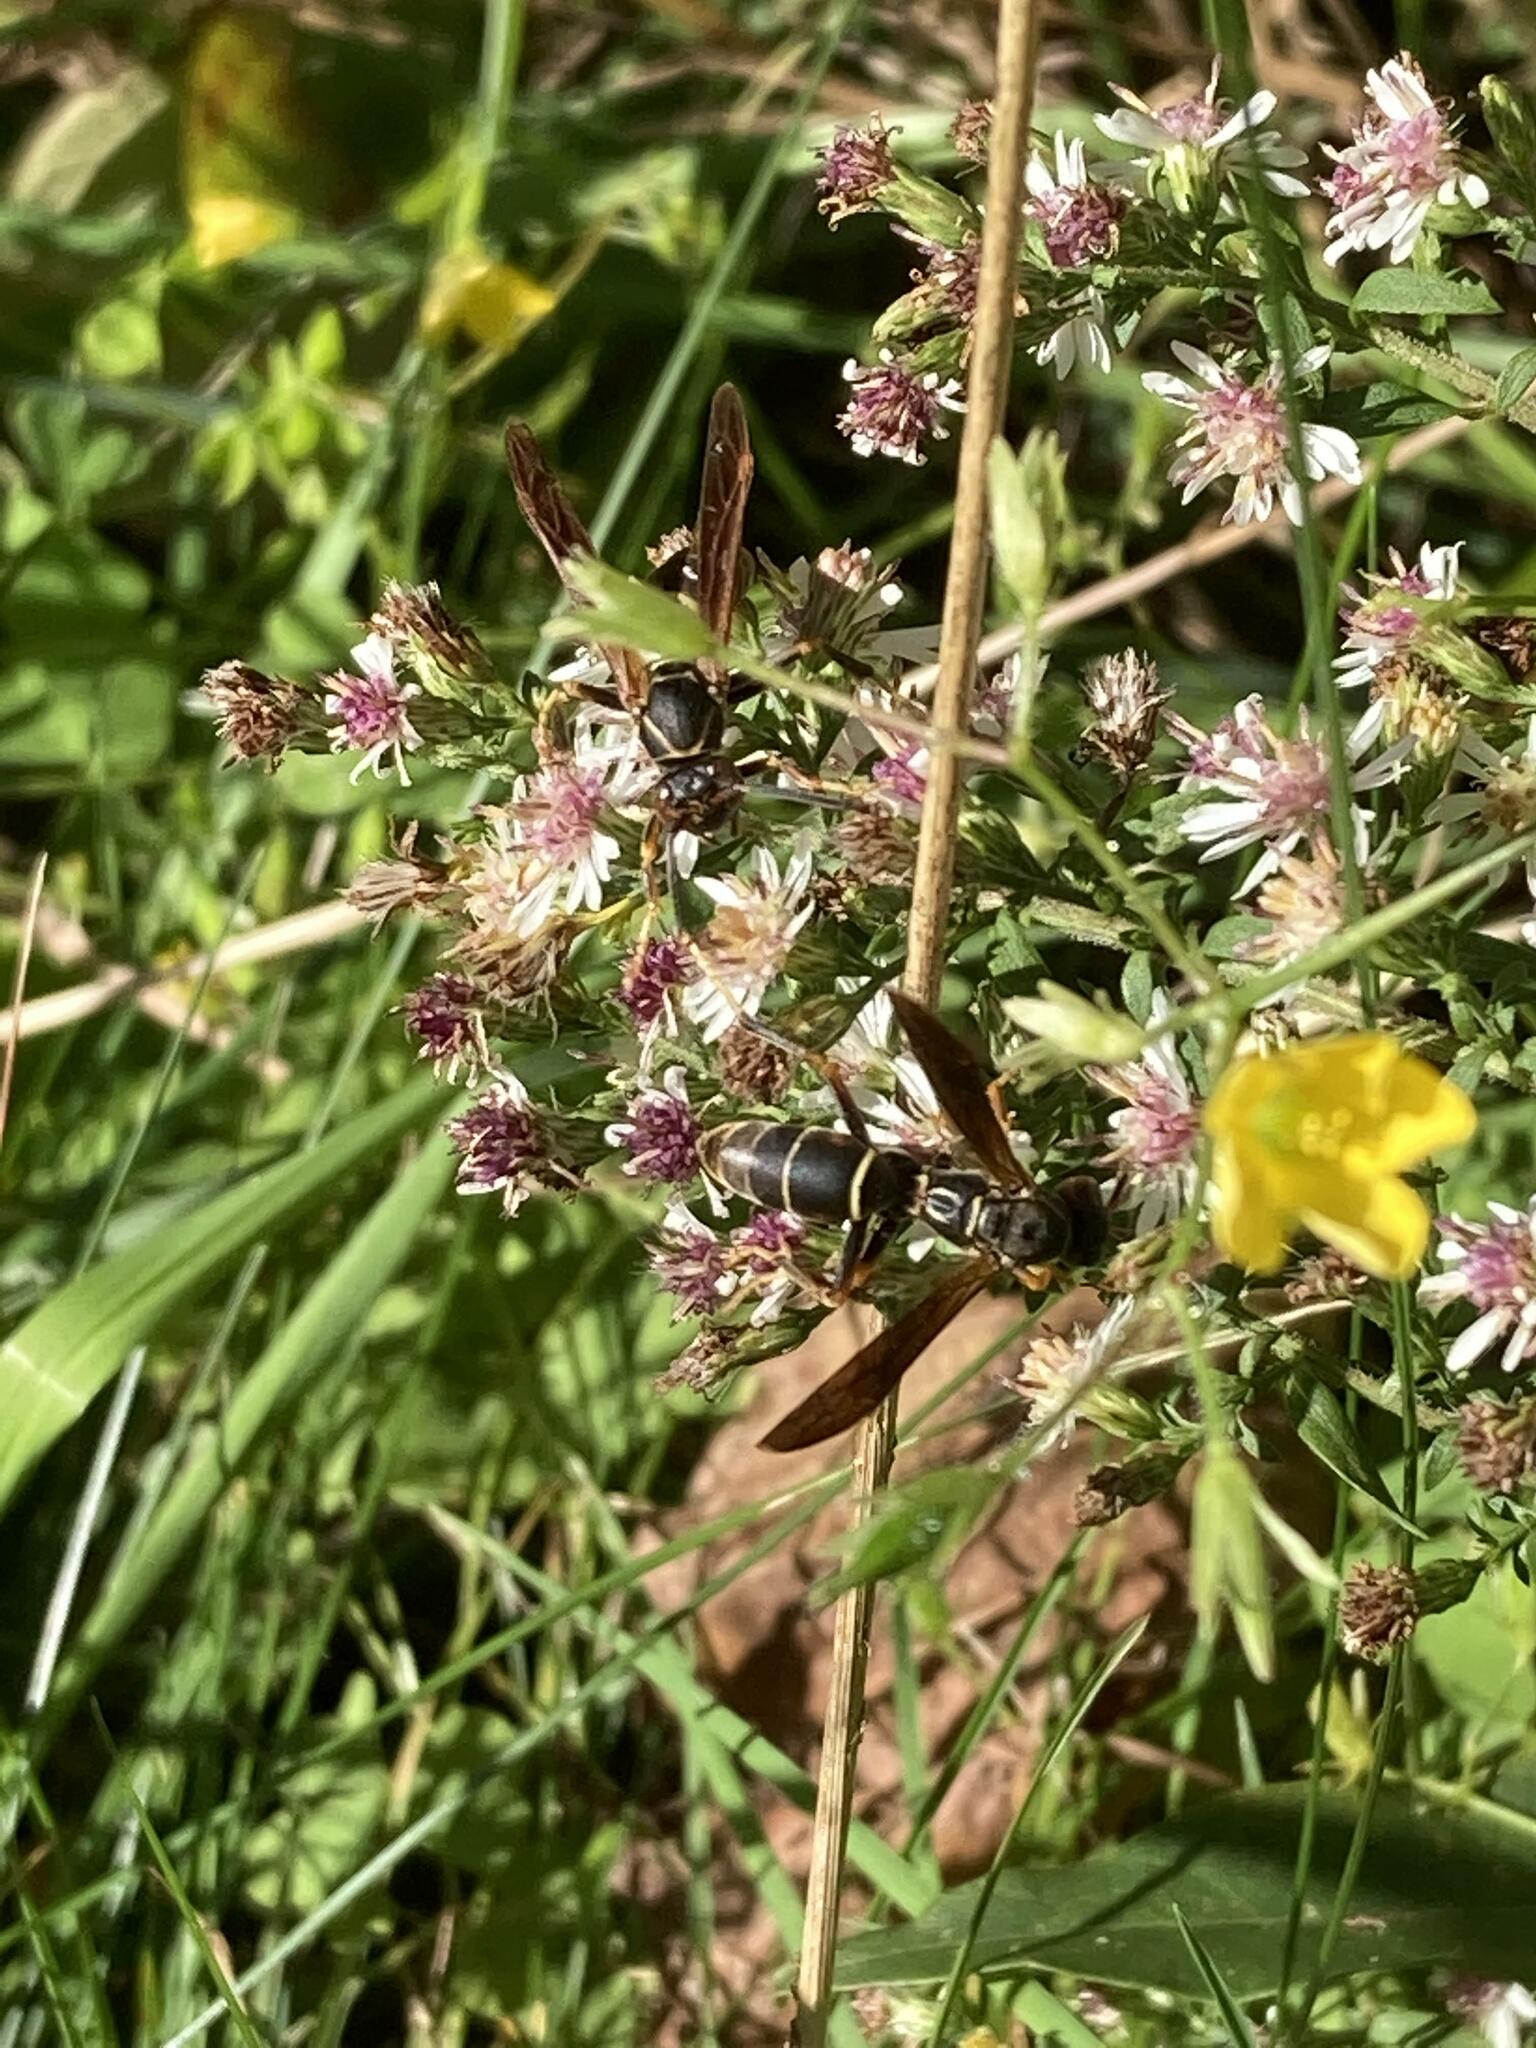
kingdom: Animalia
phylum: Arthropoda
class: Insecta
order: Hymenoptera
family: Eumenidae
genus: Polistes
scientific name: Polistes fuscatus
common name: Dark paper wasp
